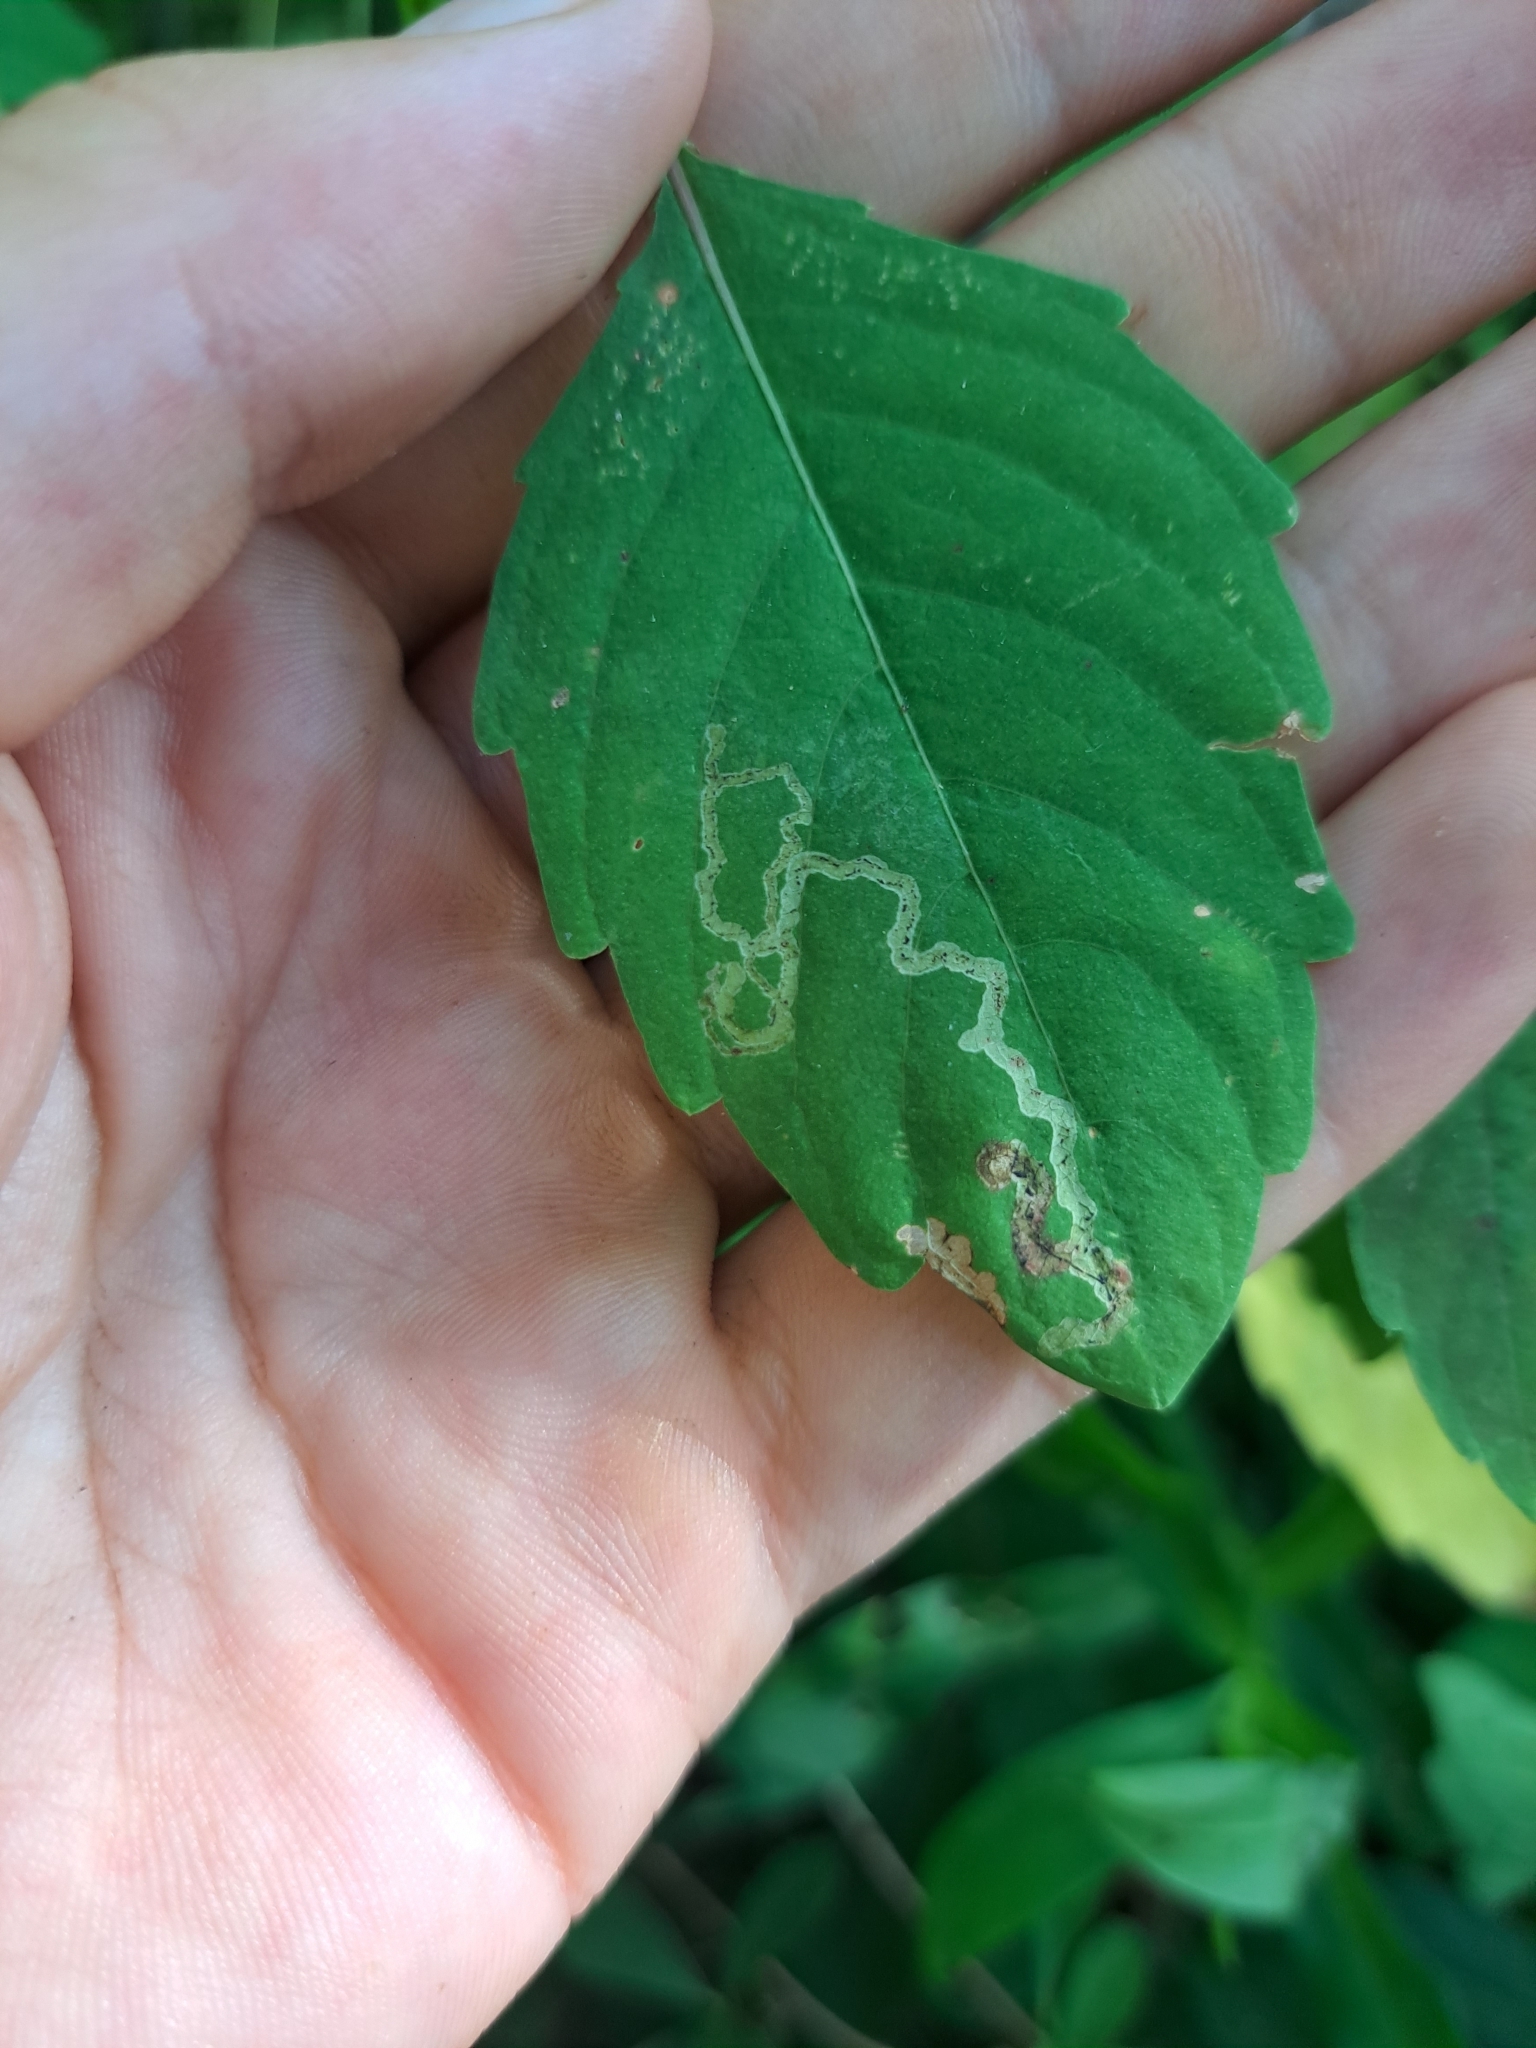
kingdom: Animalia
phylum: Arthropoda
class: Insecta
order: Diptera
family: Agromyzidae
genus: Phytoliriomyza
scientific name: Phytoliriomyza melampyga
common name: Jewelweed leaf-miner fly
